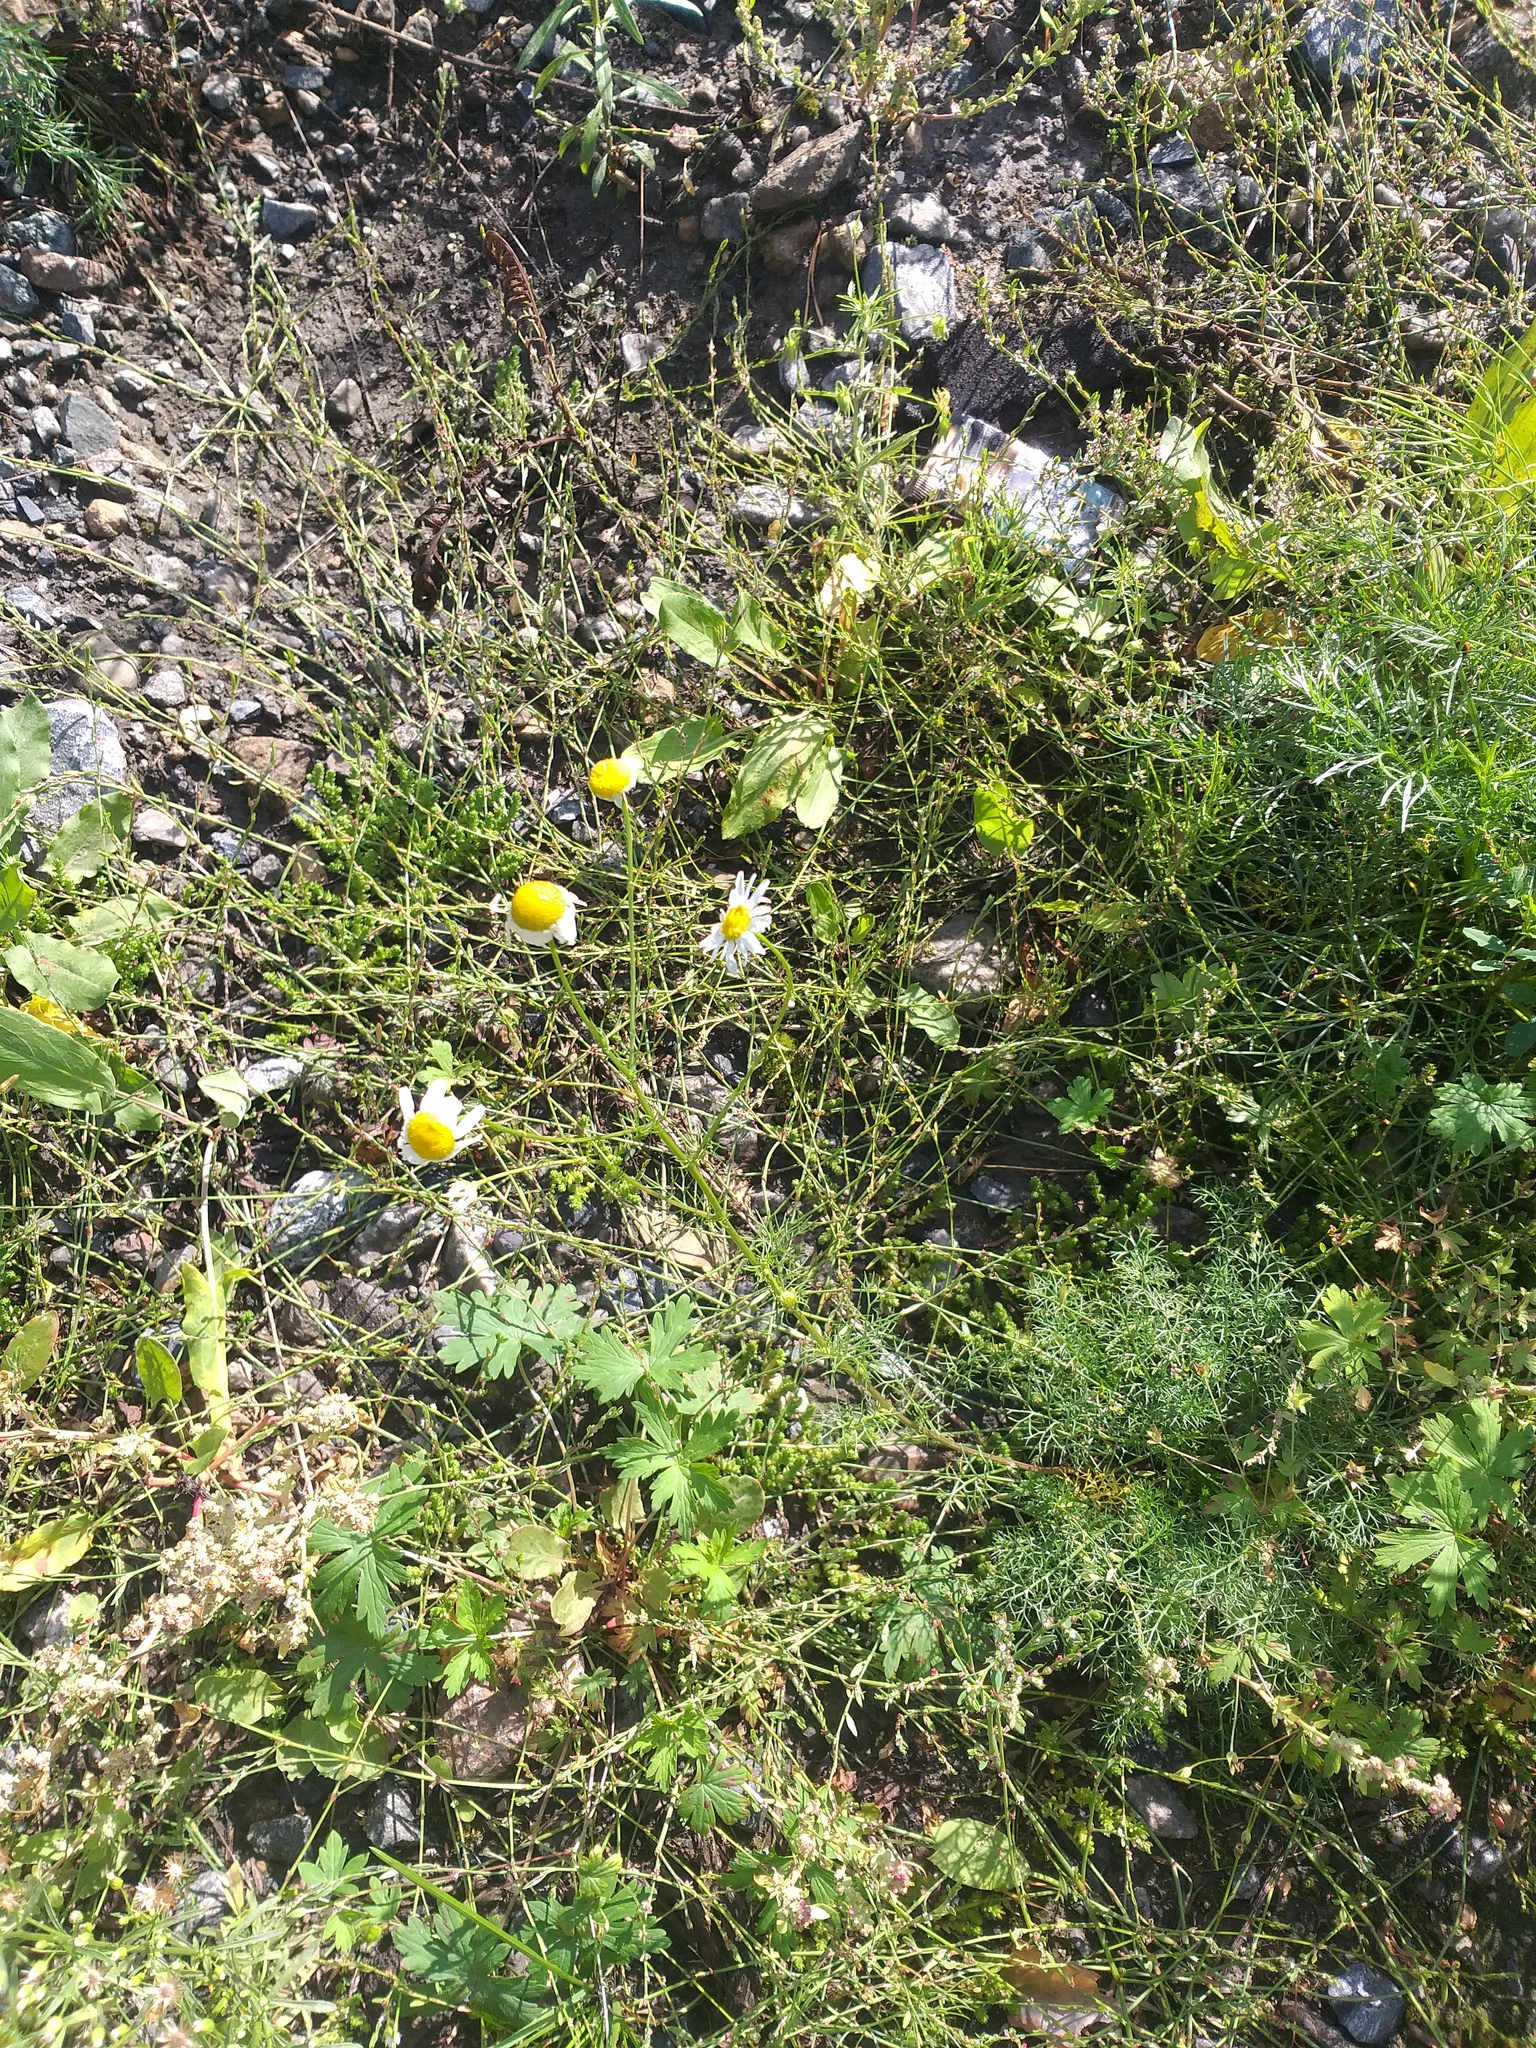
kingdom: Plantae
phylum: Tracheophyta
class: Magnoliopsida
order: Asterales
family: Asteraceae
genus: Tripleurospermum
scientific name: Tripleurospermum inodorum
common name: Scentless mayweed
